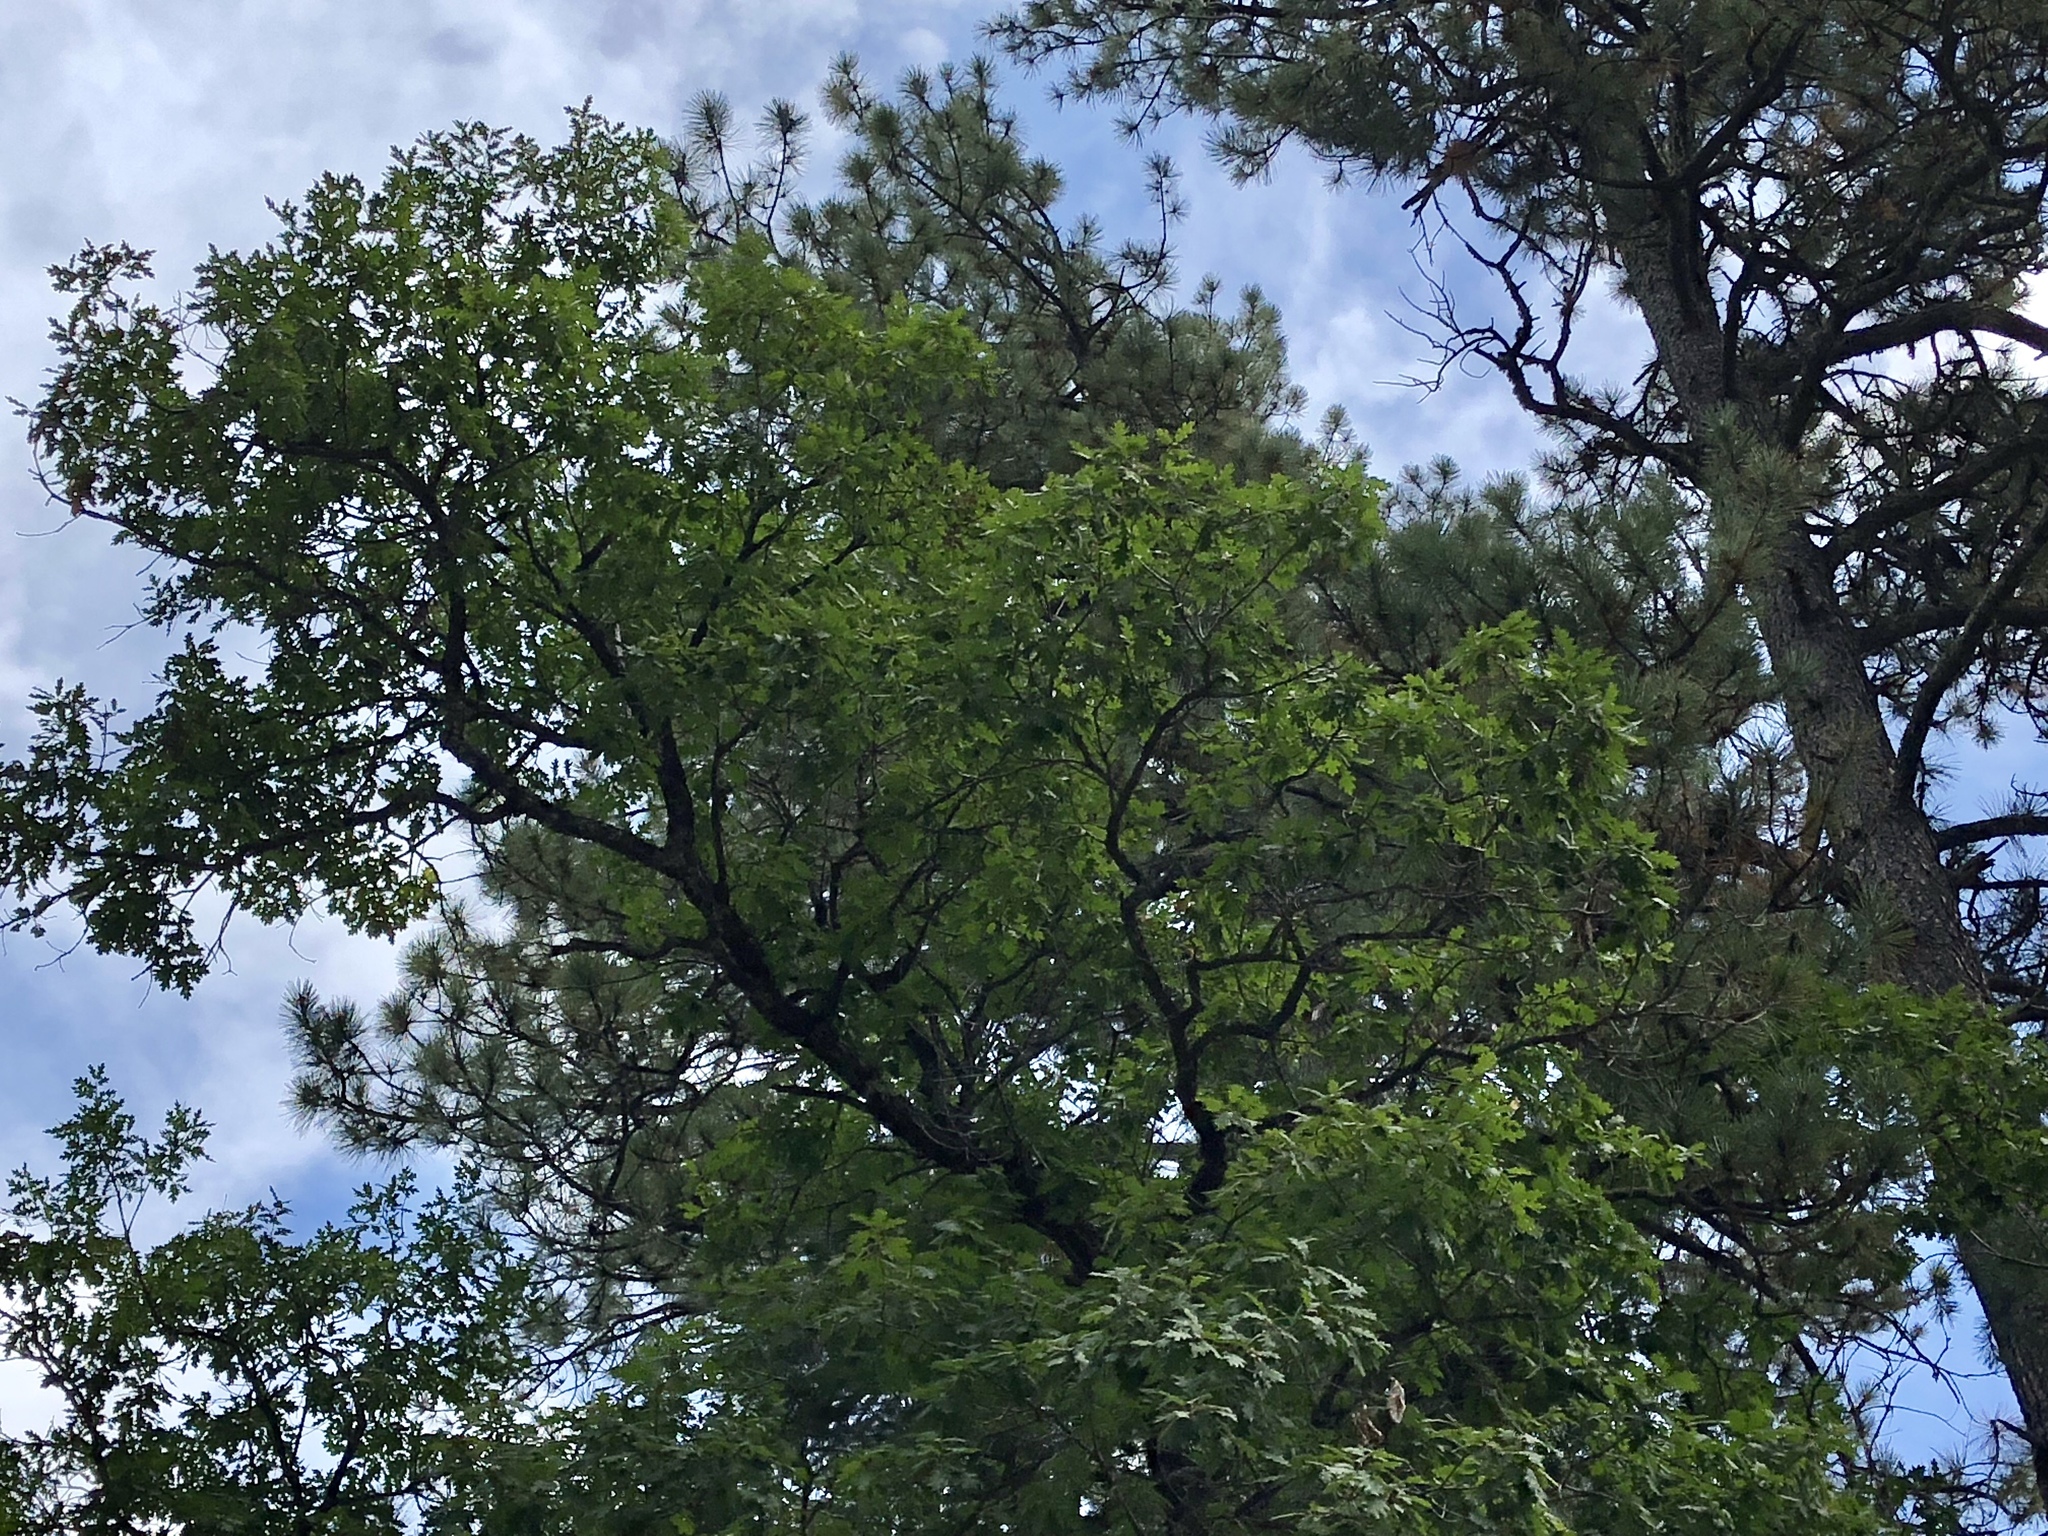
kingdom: Plantae
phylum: Tracheophyta
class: Magnoliopsida
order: Fagales
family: Fagaceae
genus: Quercus
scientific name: Quercus gambelii
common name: Gambel oak
